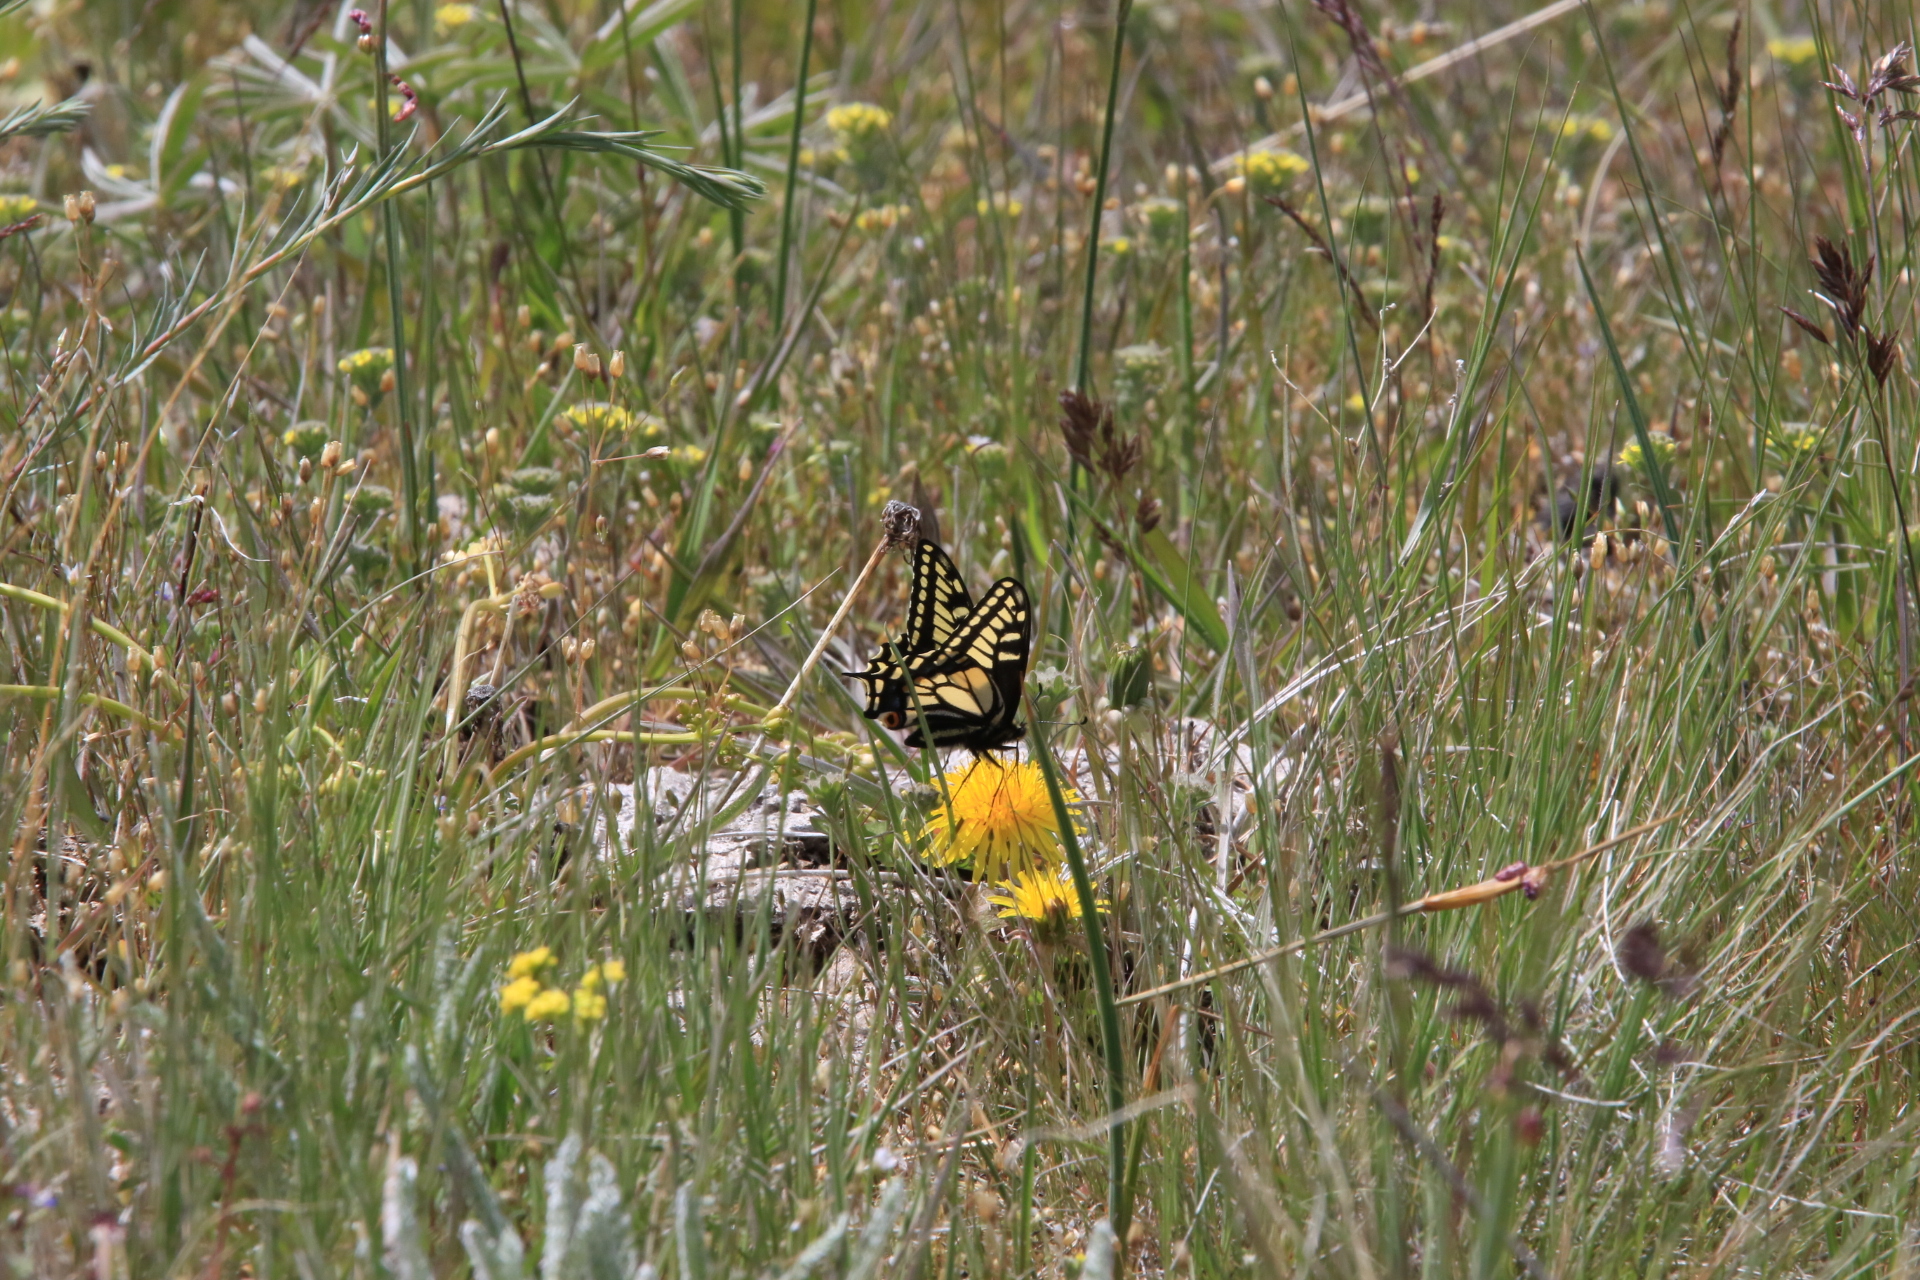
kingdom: Animalia
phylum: Arthropoda
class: Insecta
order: Lepidoptera
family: Papilionidae
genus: Papilio
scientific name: Papilio zelicaon
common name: Anise swallowtail
